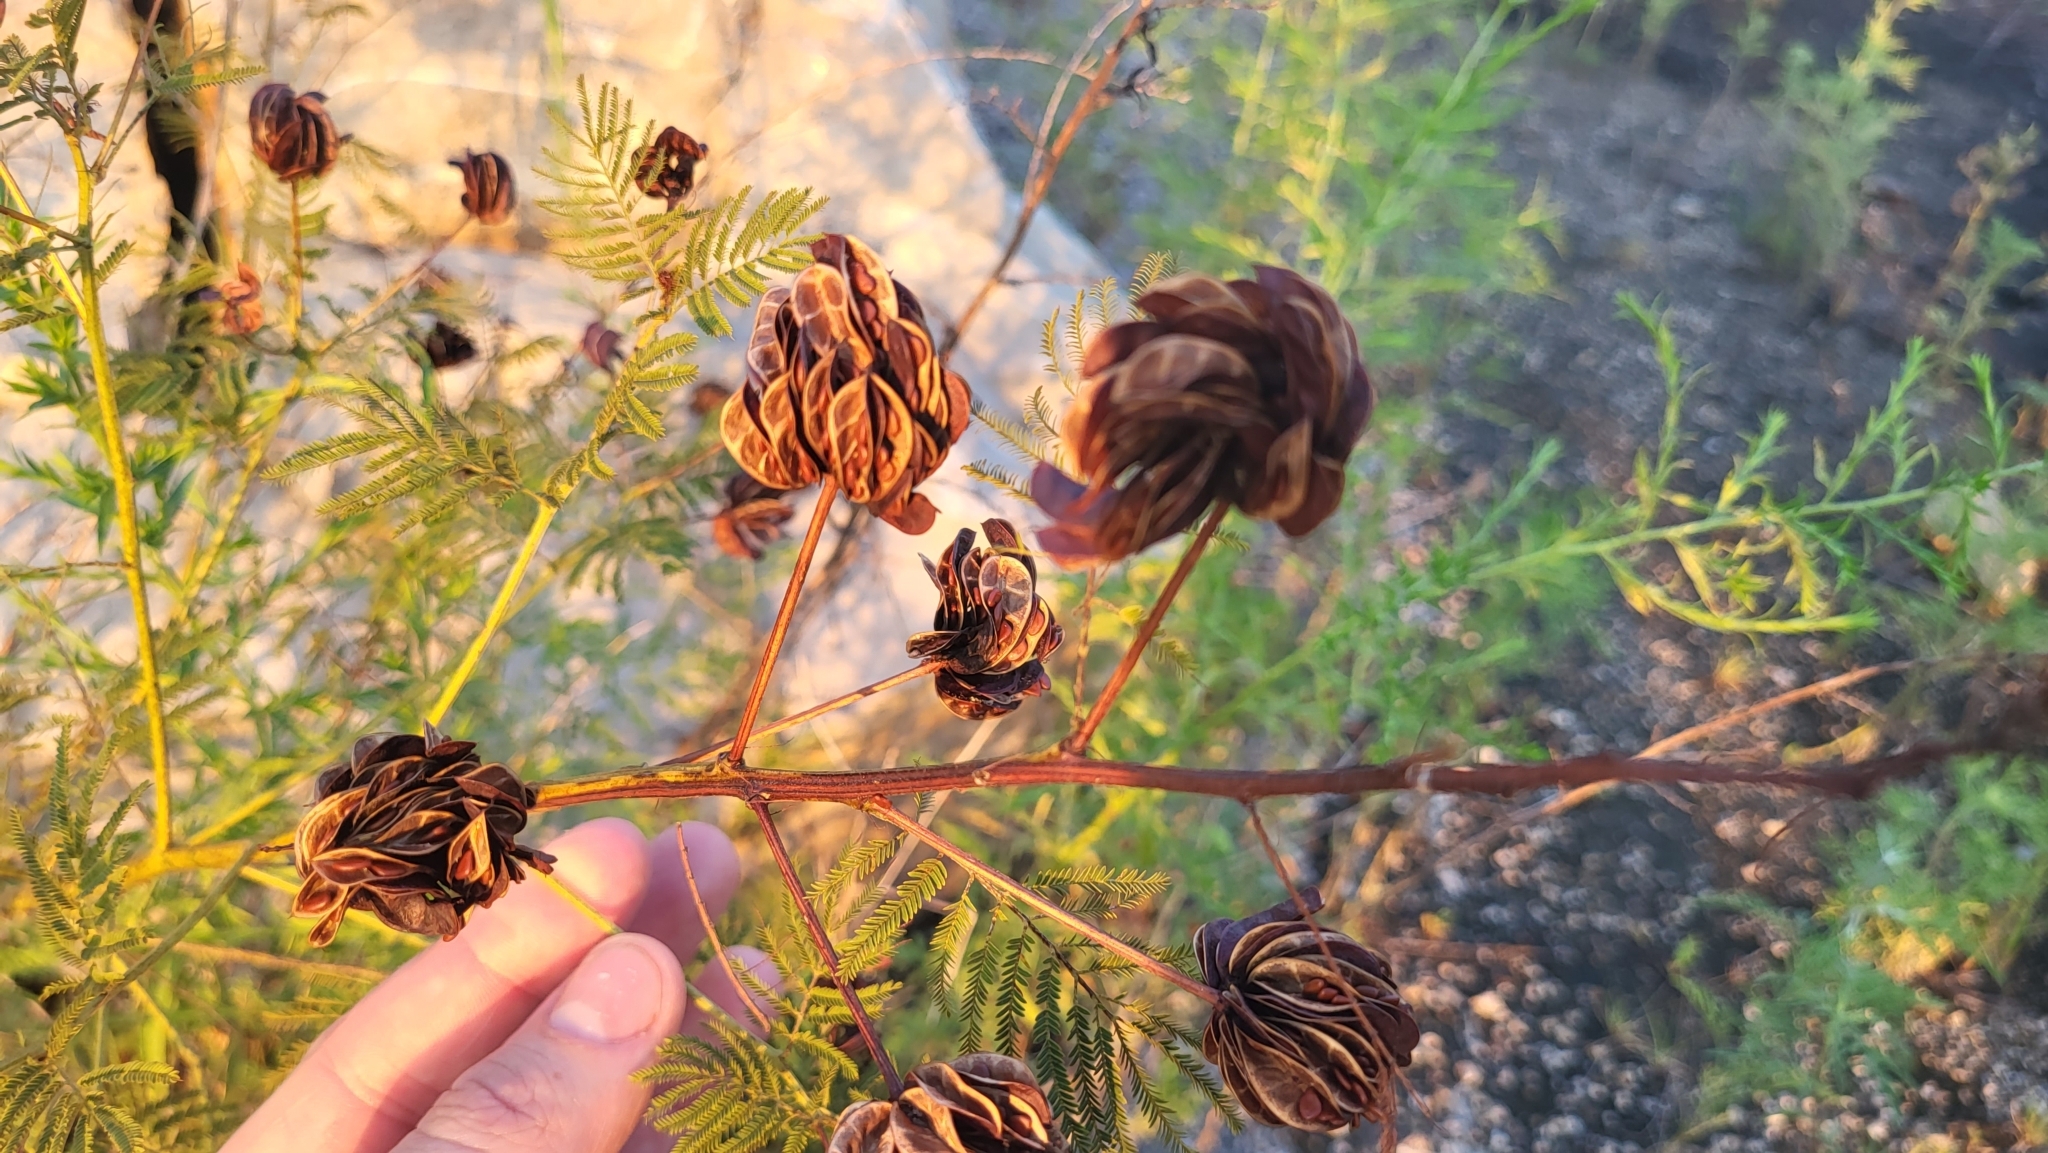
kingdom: Plantae
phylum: Tracheophyta
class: Magnoliopsida
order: Fabales
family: Fabaceae
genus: Desmanthus
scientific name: Desmanthus illinoensis
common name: Illinois bundle-flower
